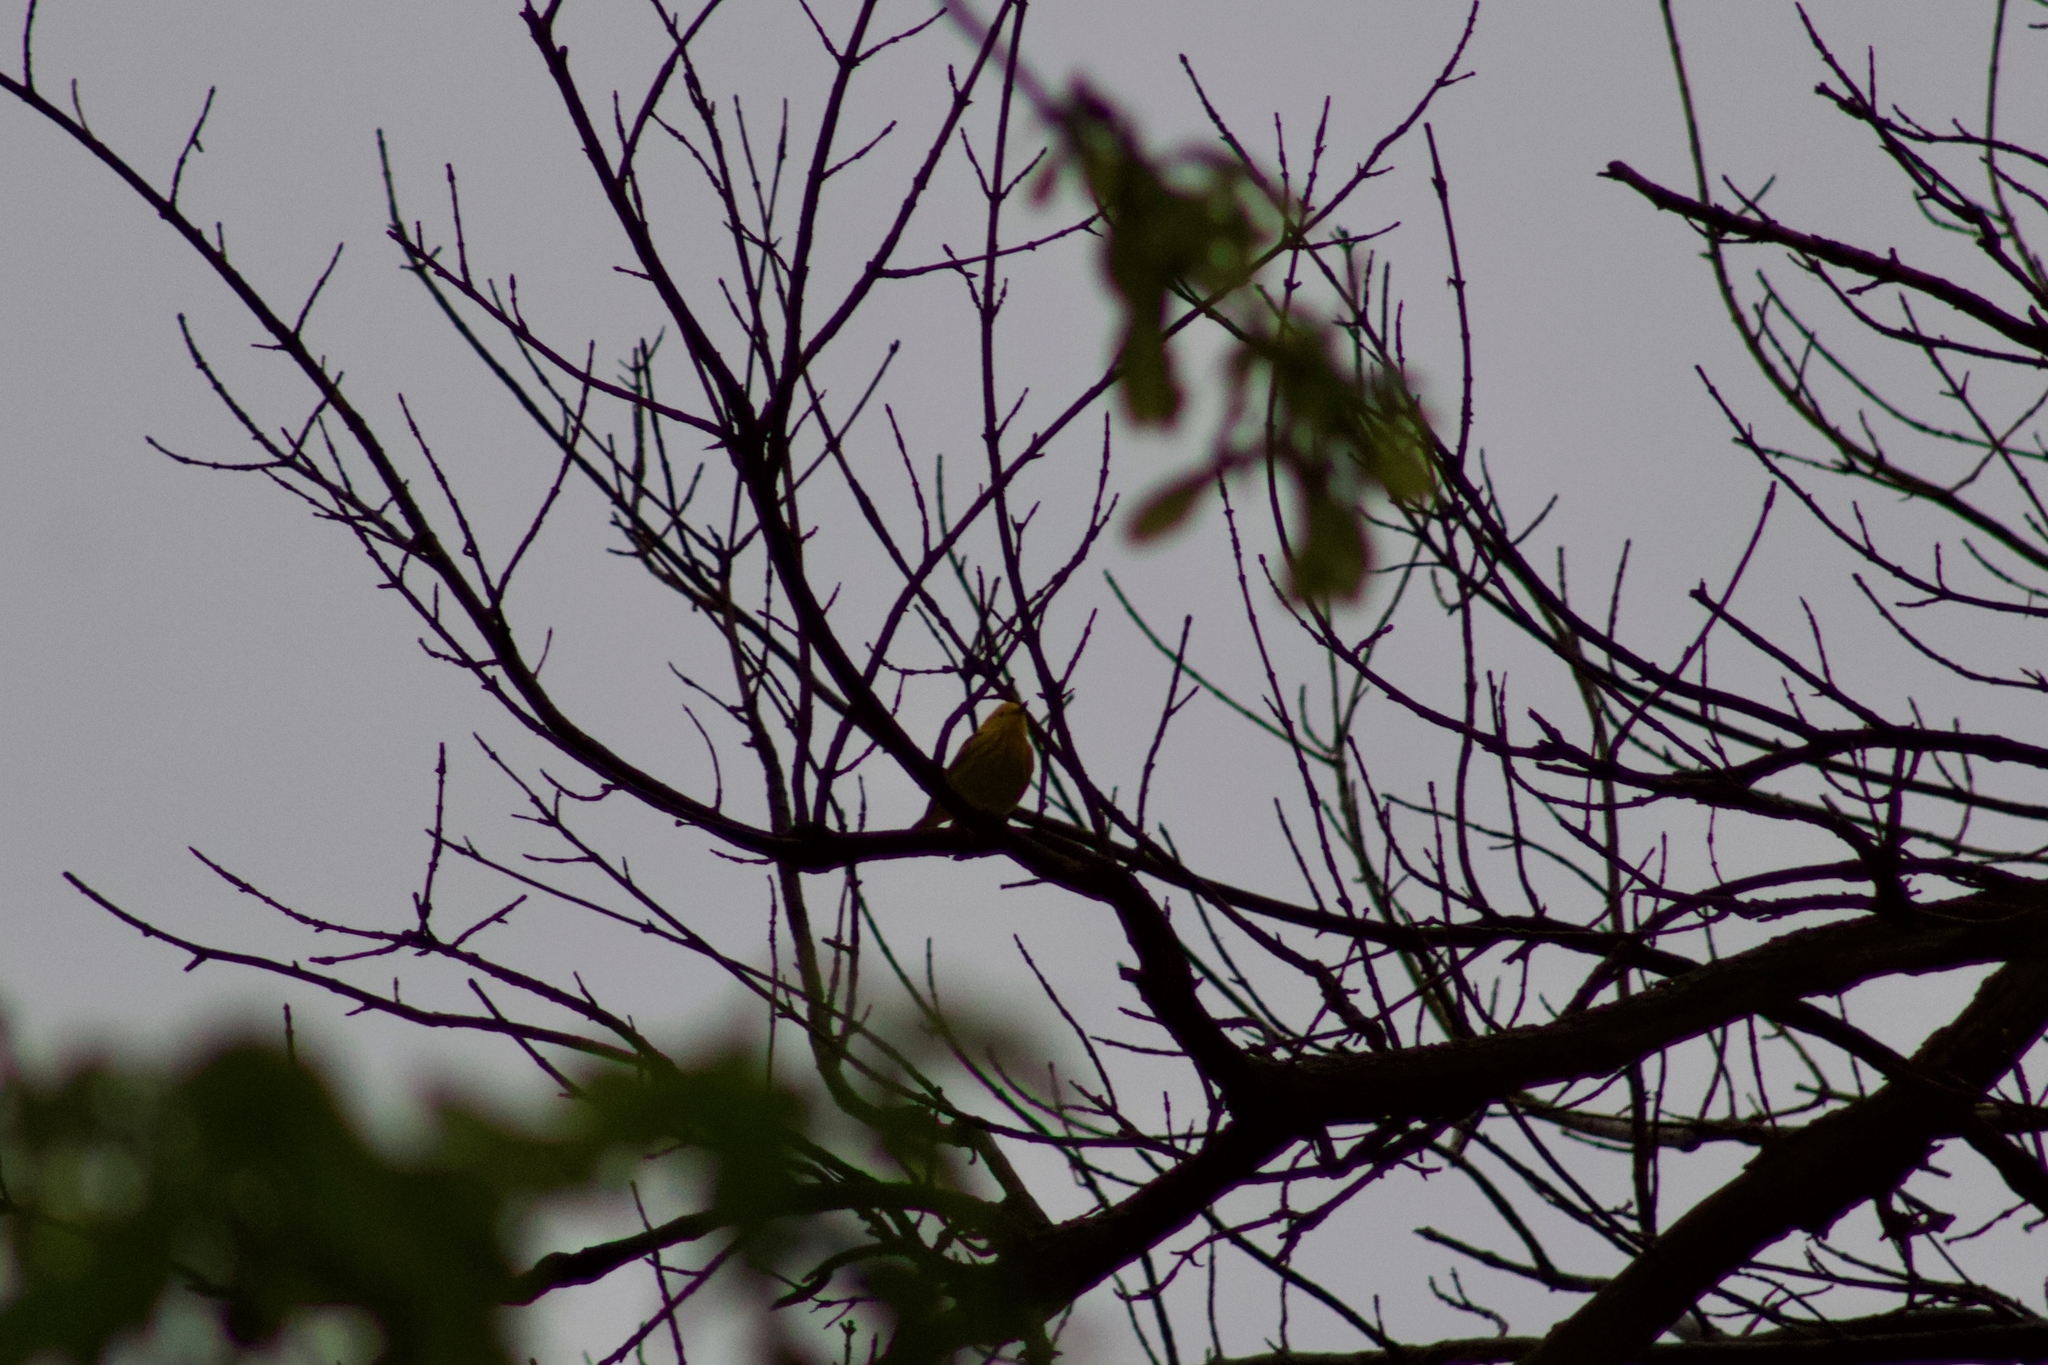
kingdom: Animalia
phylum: Chordata
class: Aves
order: Passeriformes
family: Parulidae
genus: Setophaga
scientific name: Setophaga petechia
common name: Yellow warbler
